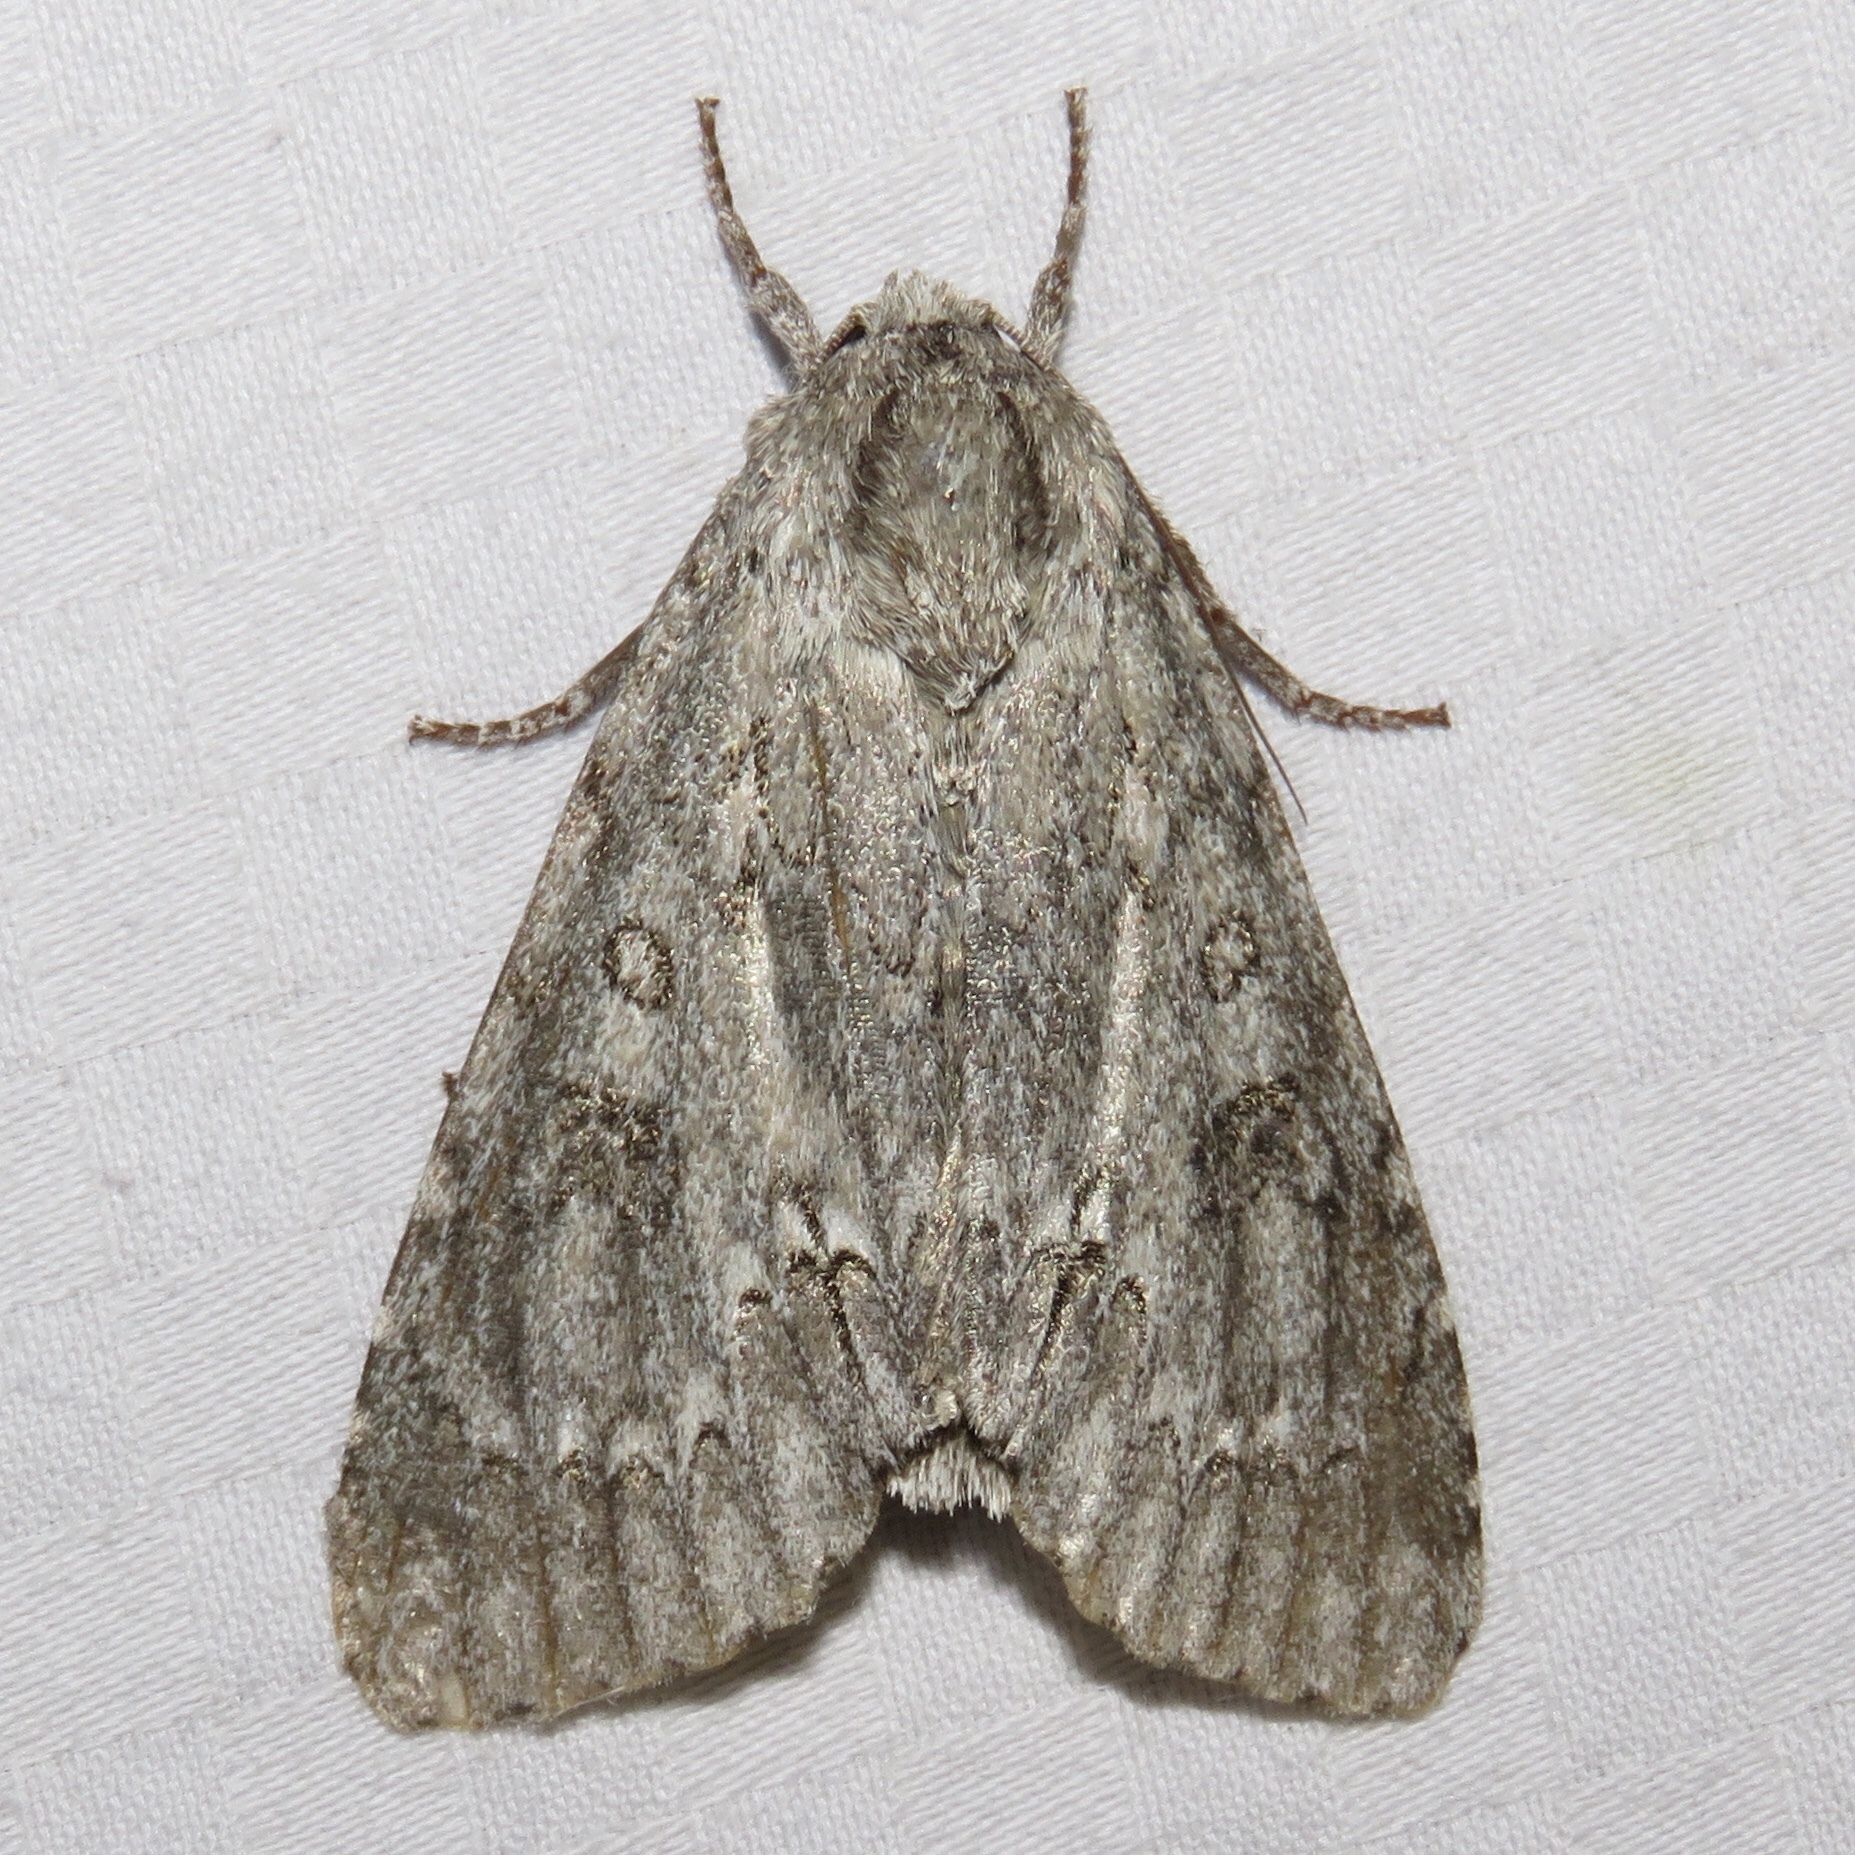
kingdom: Animalia
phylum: Arthropoda
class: Insecta
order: Lepidoptera
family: Noctuidae
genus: Acronicta
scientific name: Acronicta americana
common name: American dagger
